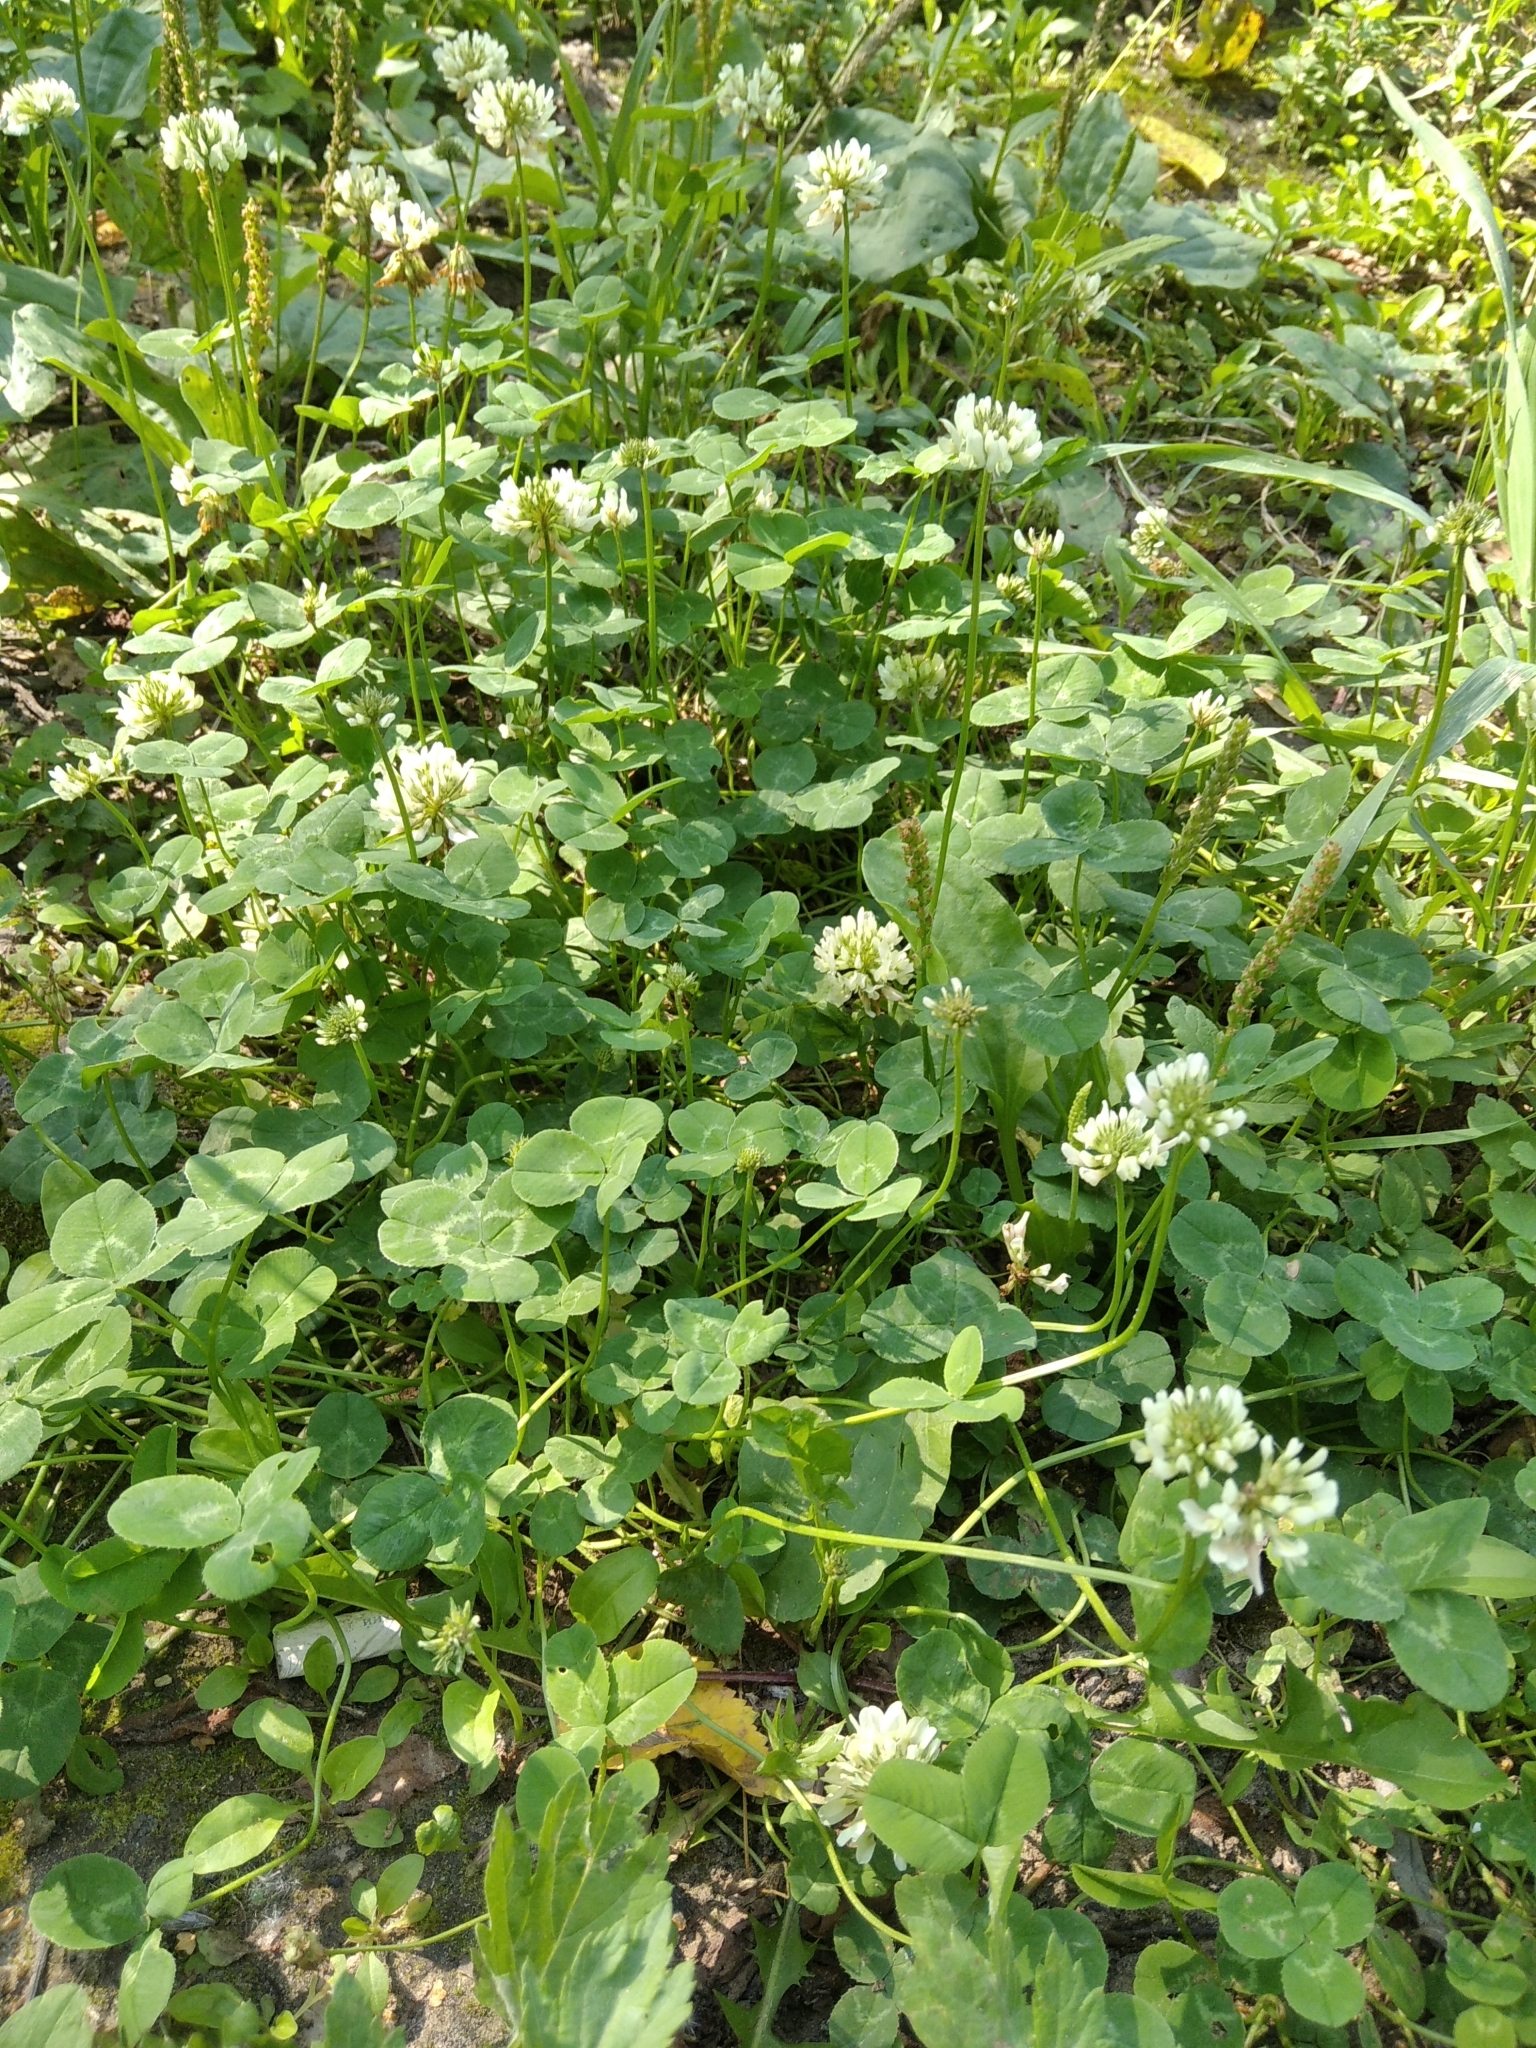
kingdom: Plantae
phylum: Tracheophyta
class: Magnoliopsida
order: Fabales
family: Fabaceae
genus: Trifolium
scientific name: Trifolium repens
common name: White clover
